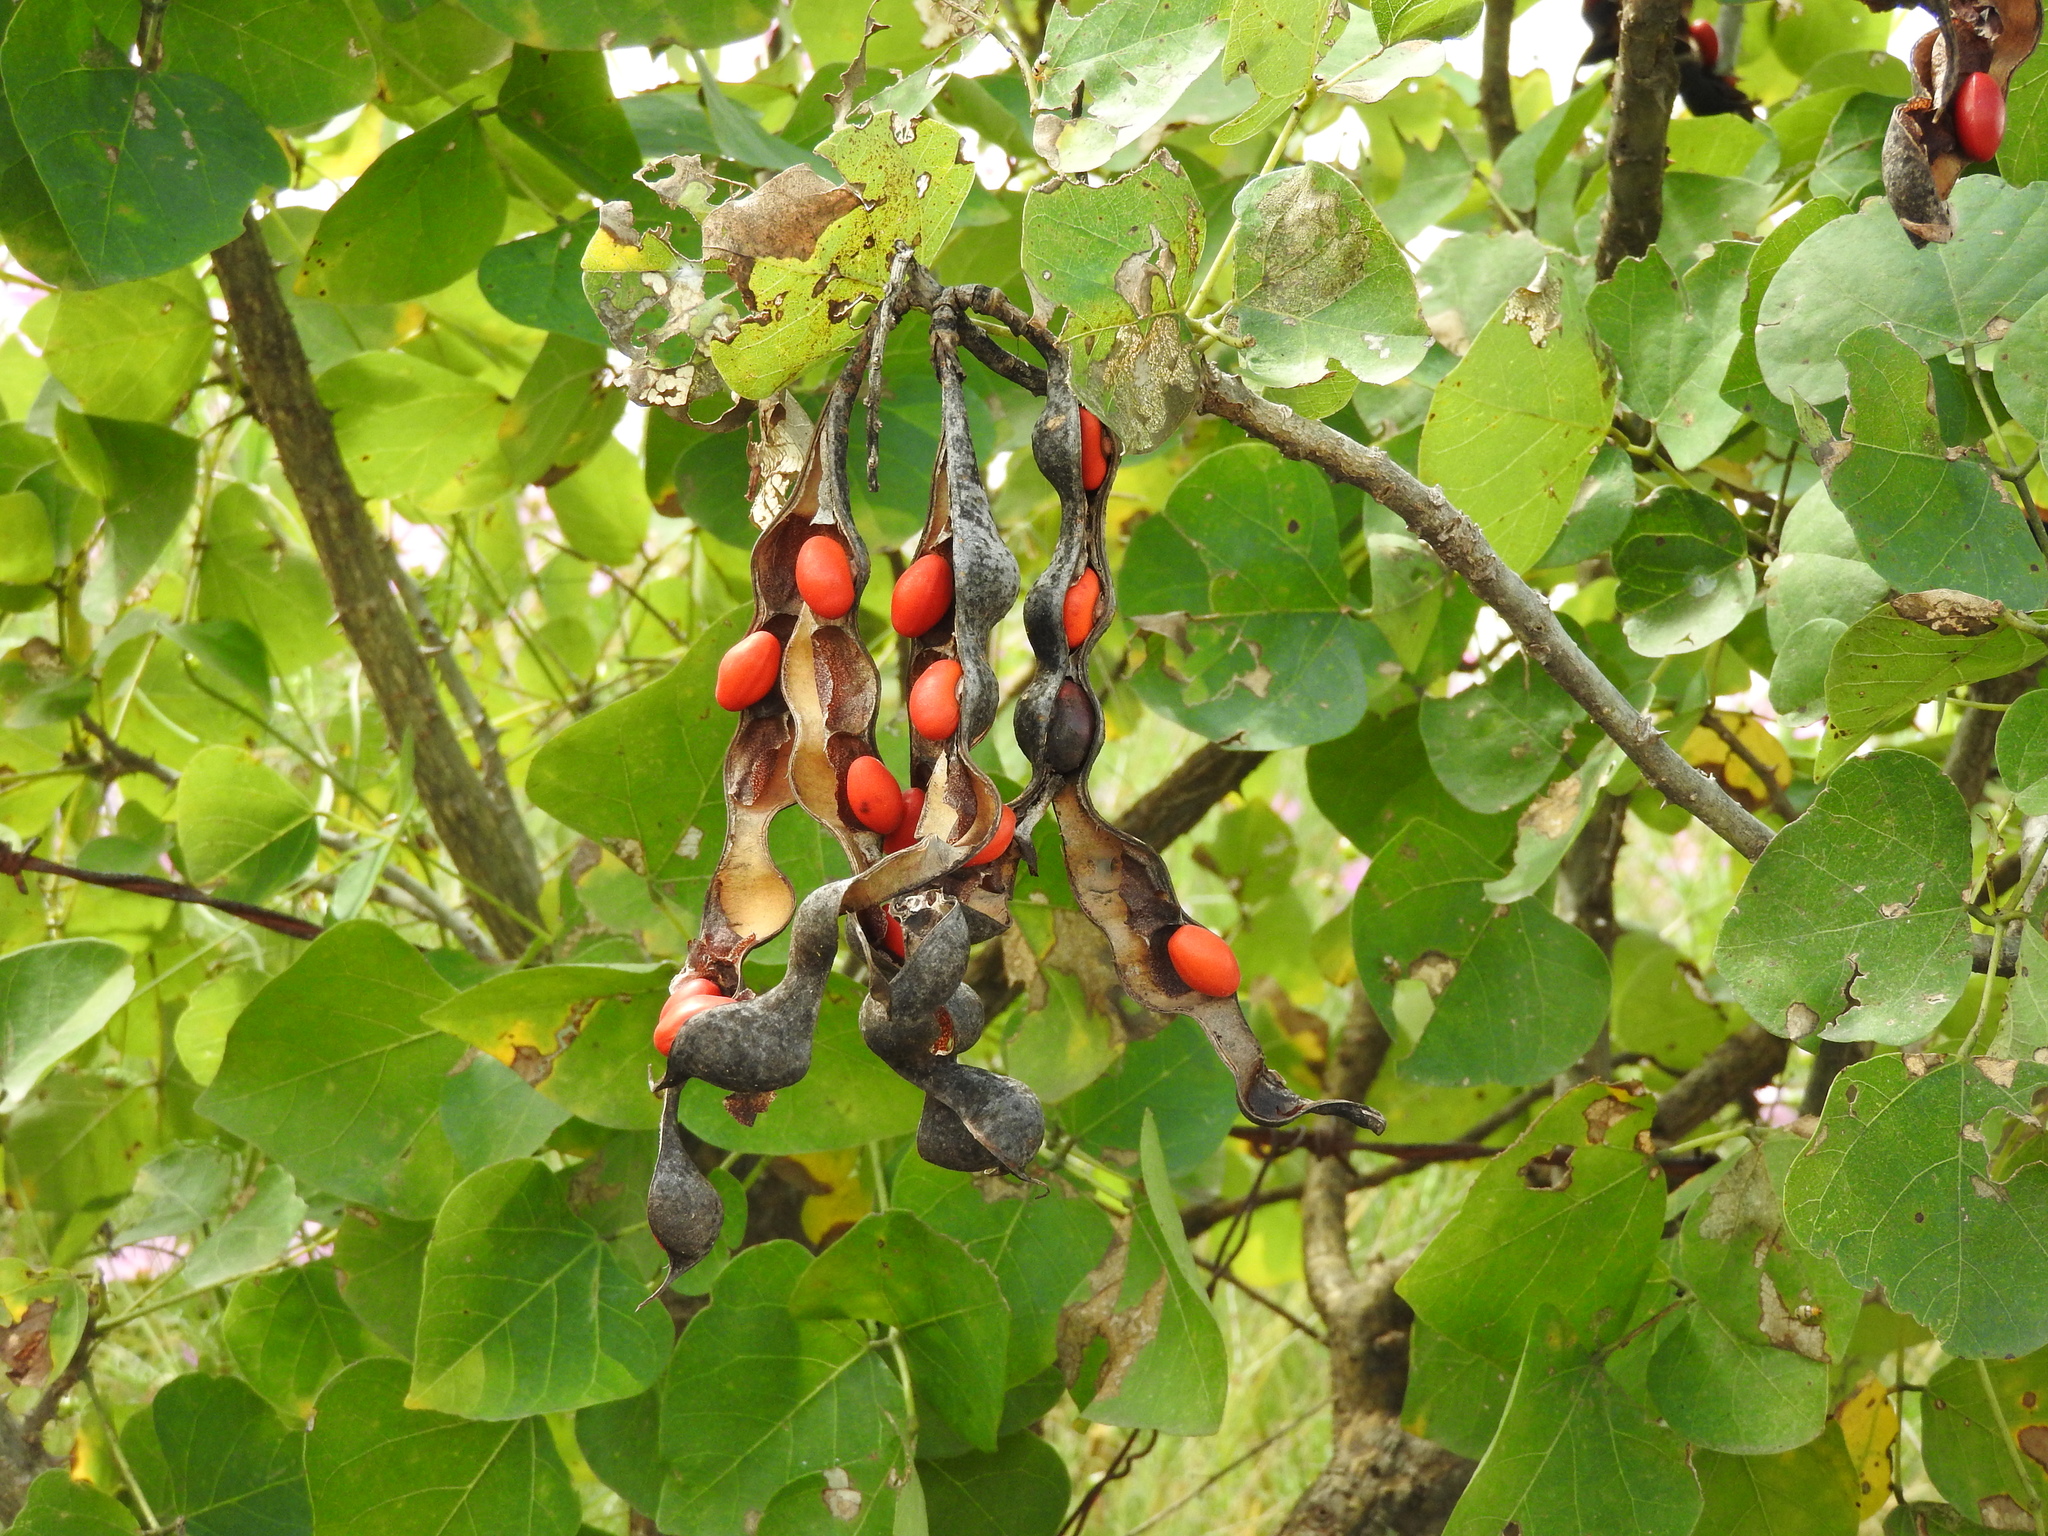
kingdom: Plantae
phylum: Tracheophyta
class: Magnoliopsida
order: Fabales
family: Fabaceae
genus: Erythrina
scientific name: Erythrina americana
